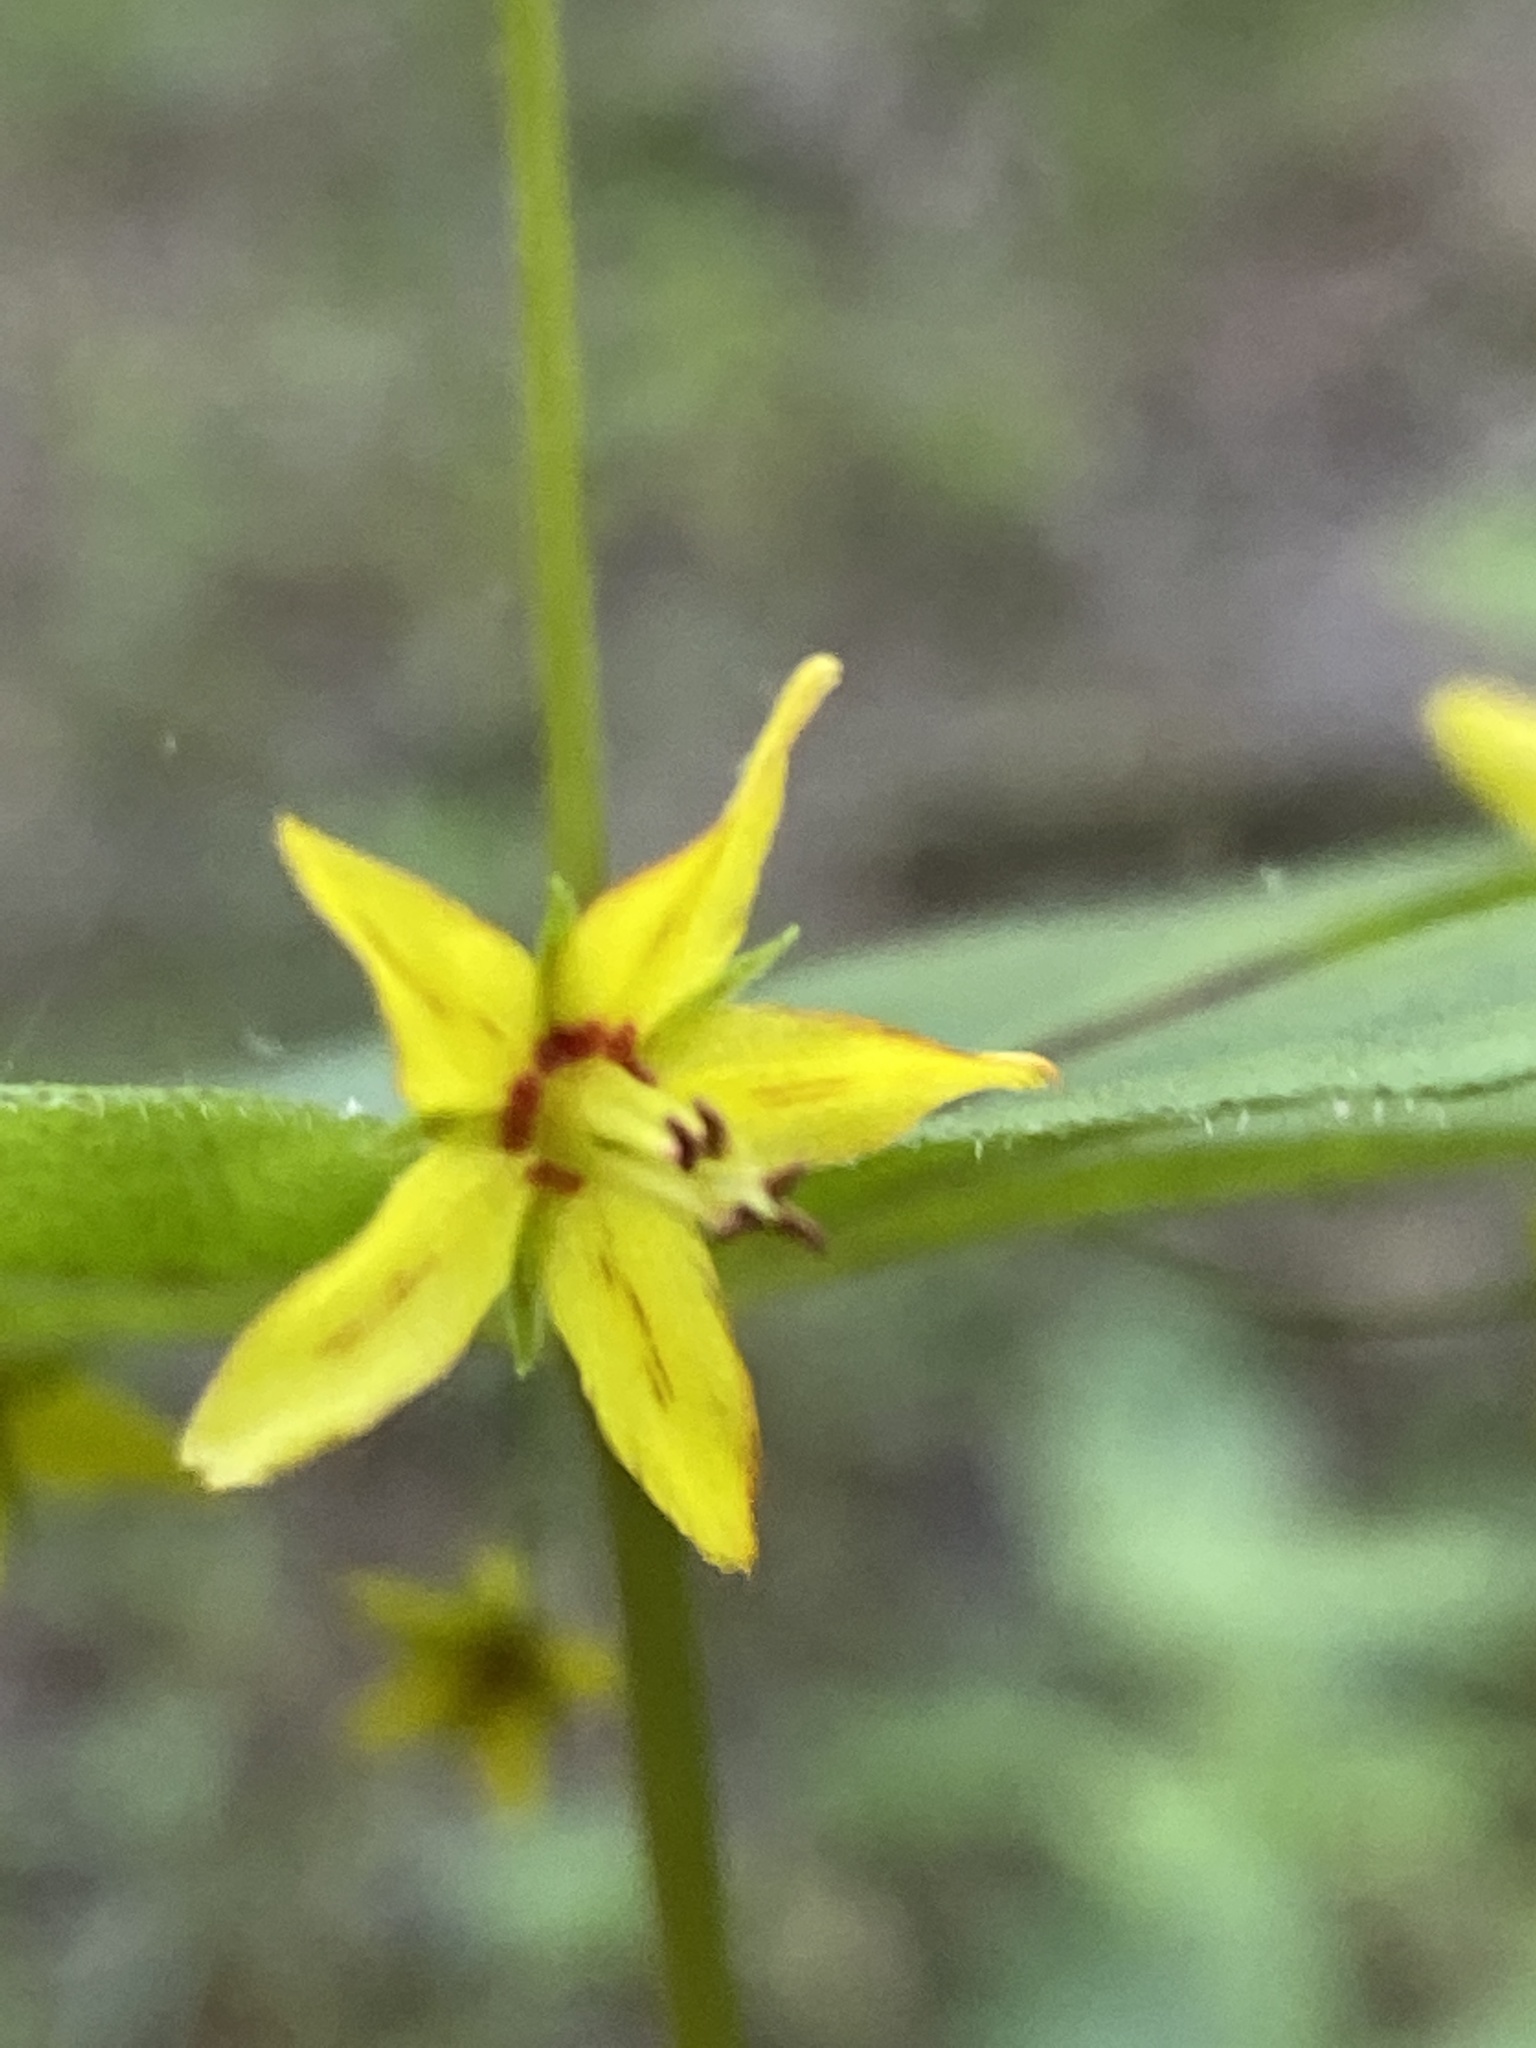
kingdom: Plantae
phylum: Tracheophyta
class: Magnoliopsida
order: Ericales
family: Primulaceae
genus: Lysimachia
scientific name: Lysimachia quadrifolia
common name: Whorled loosestrife
